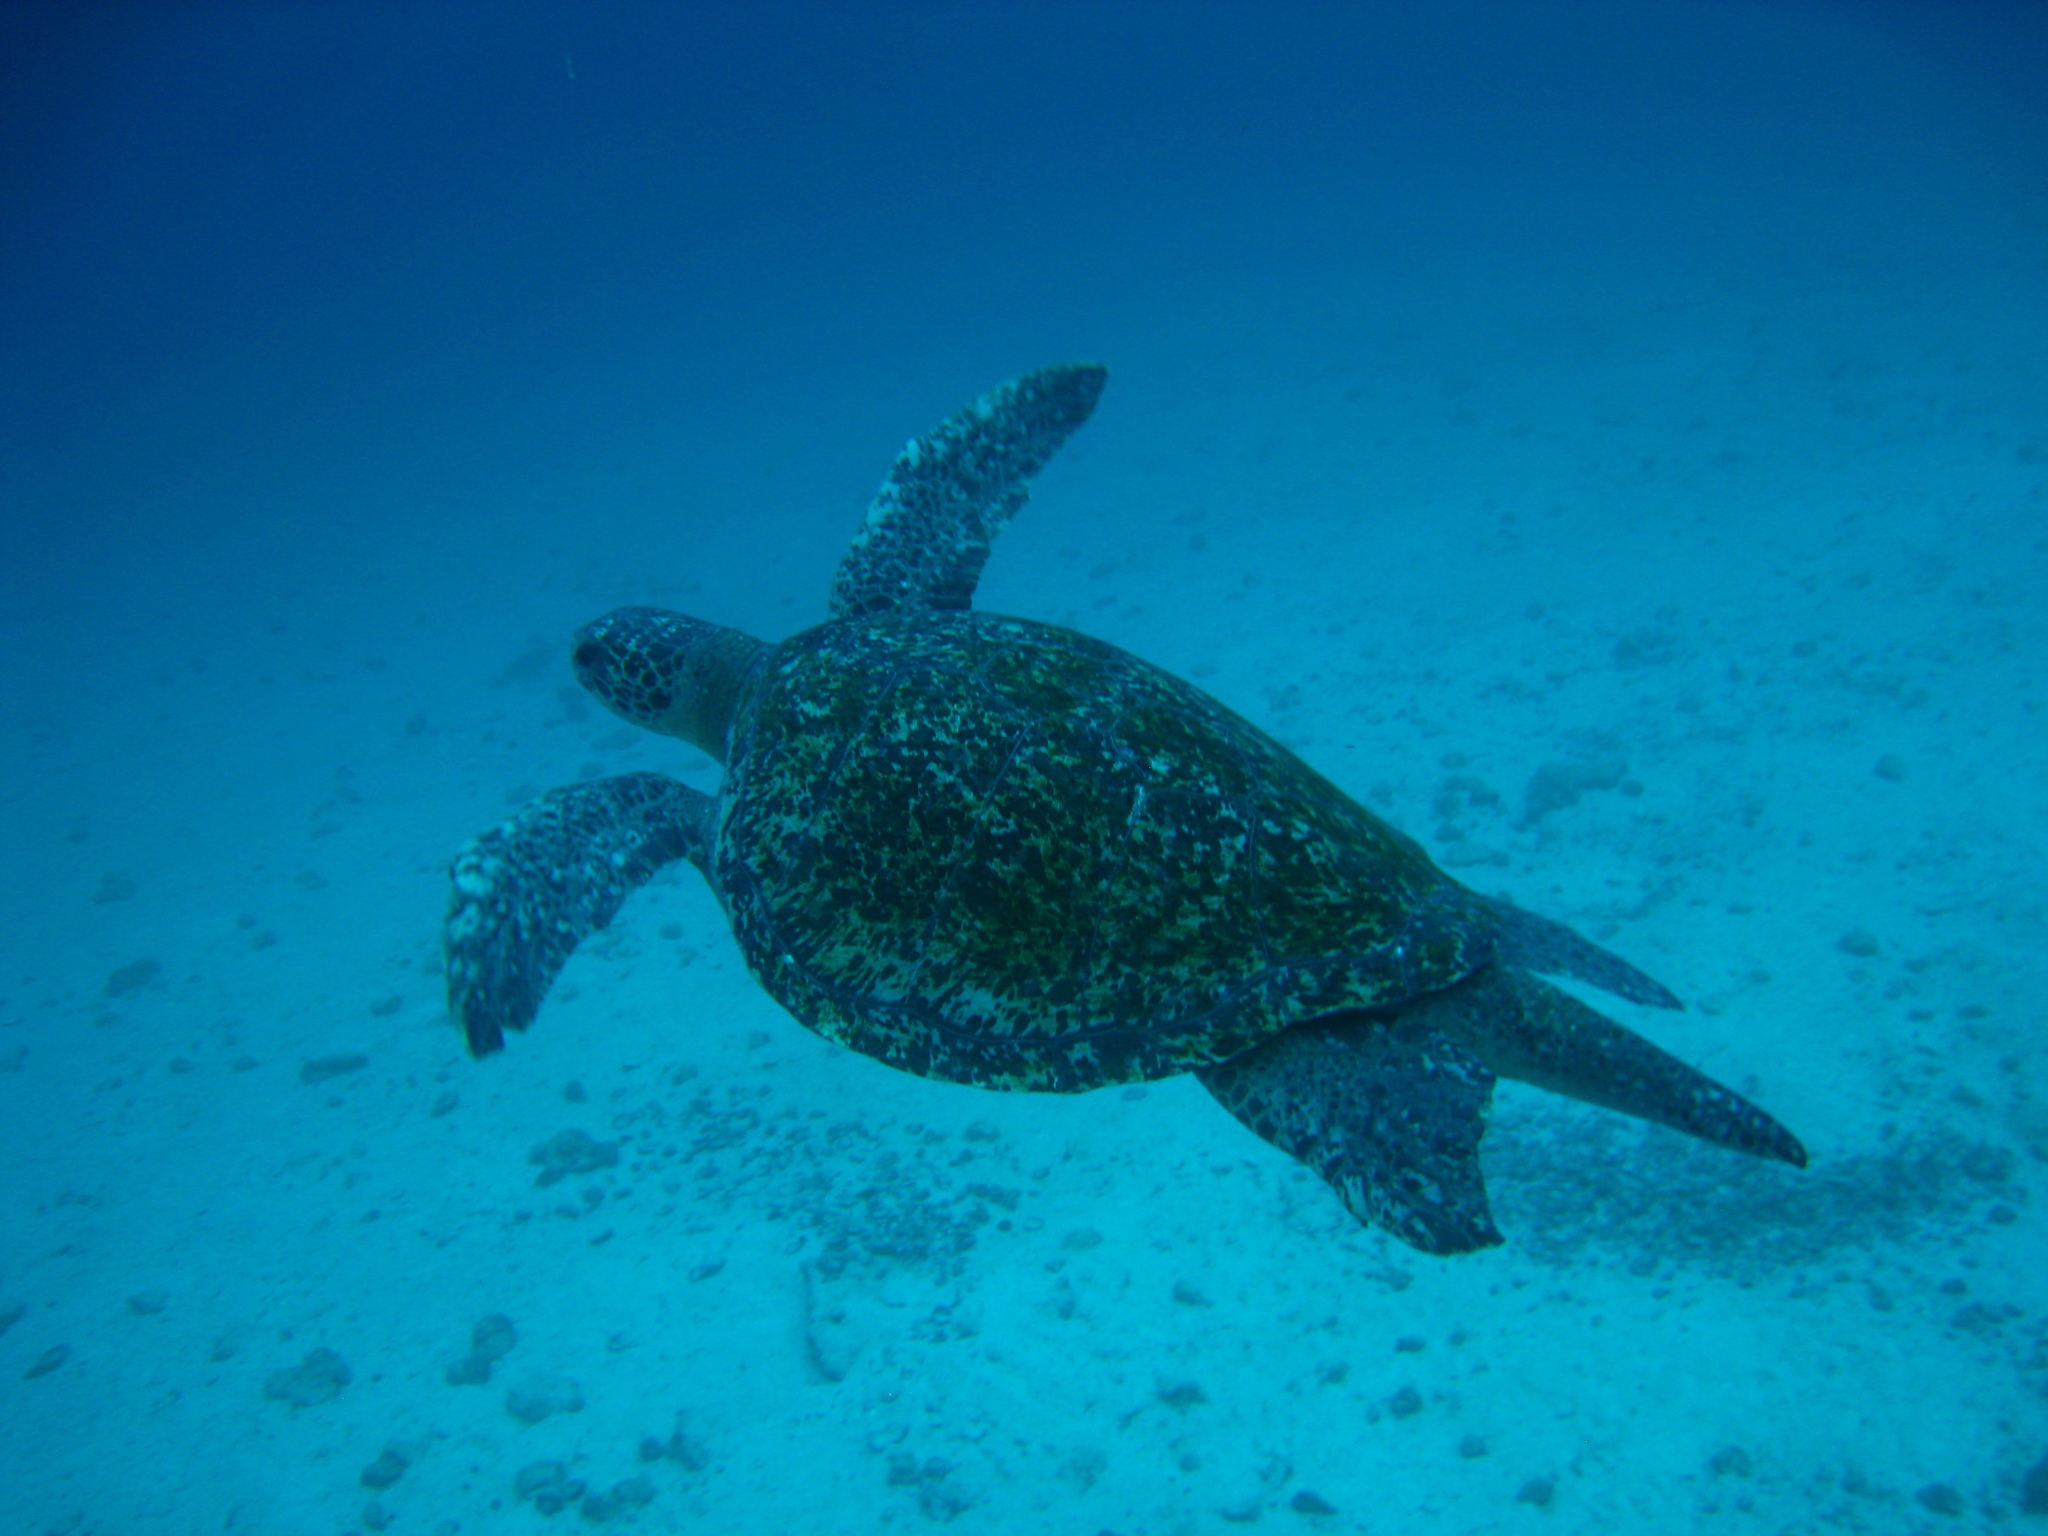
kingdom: Animalia
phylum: Chordata
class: Testudines
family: Cheloniidae
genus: Chelonia
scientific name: Chelonia mydas
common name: Green turtle
